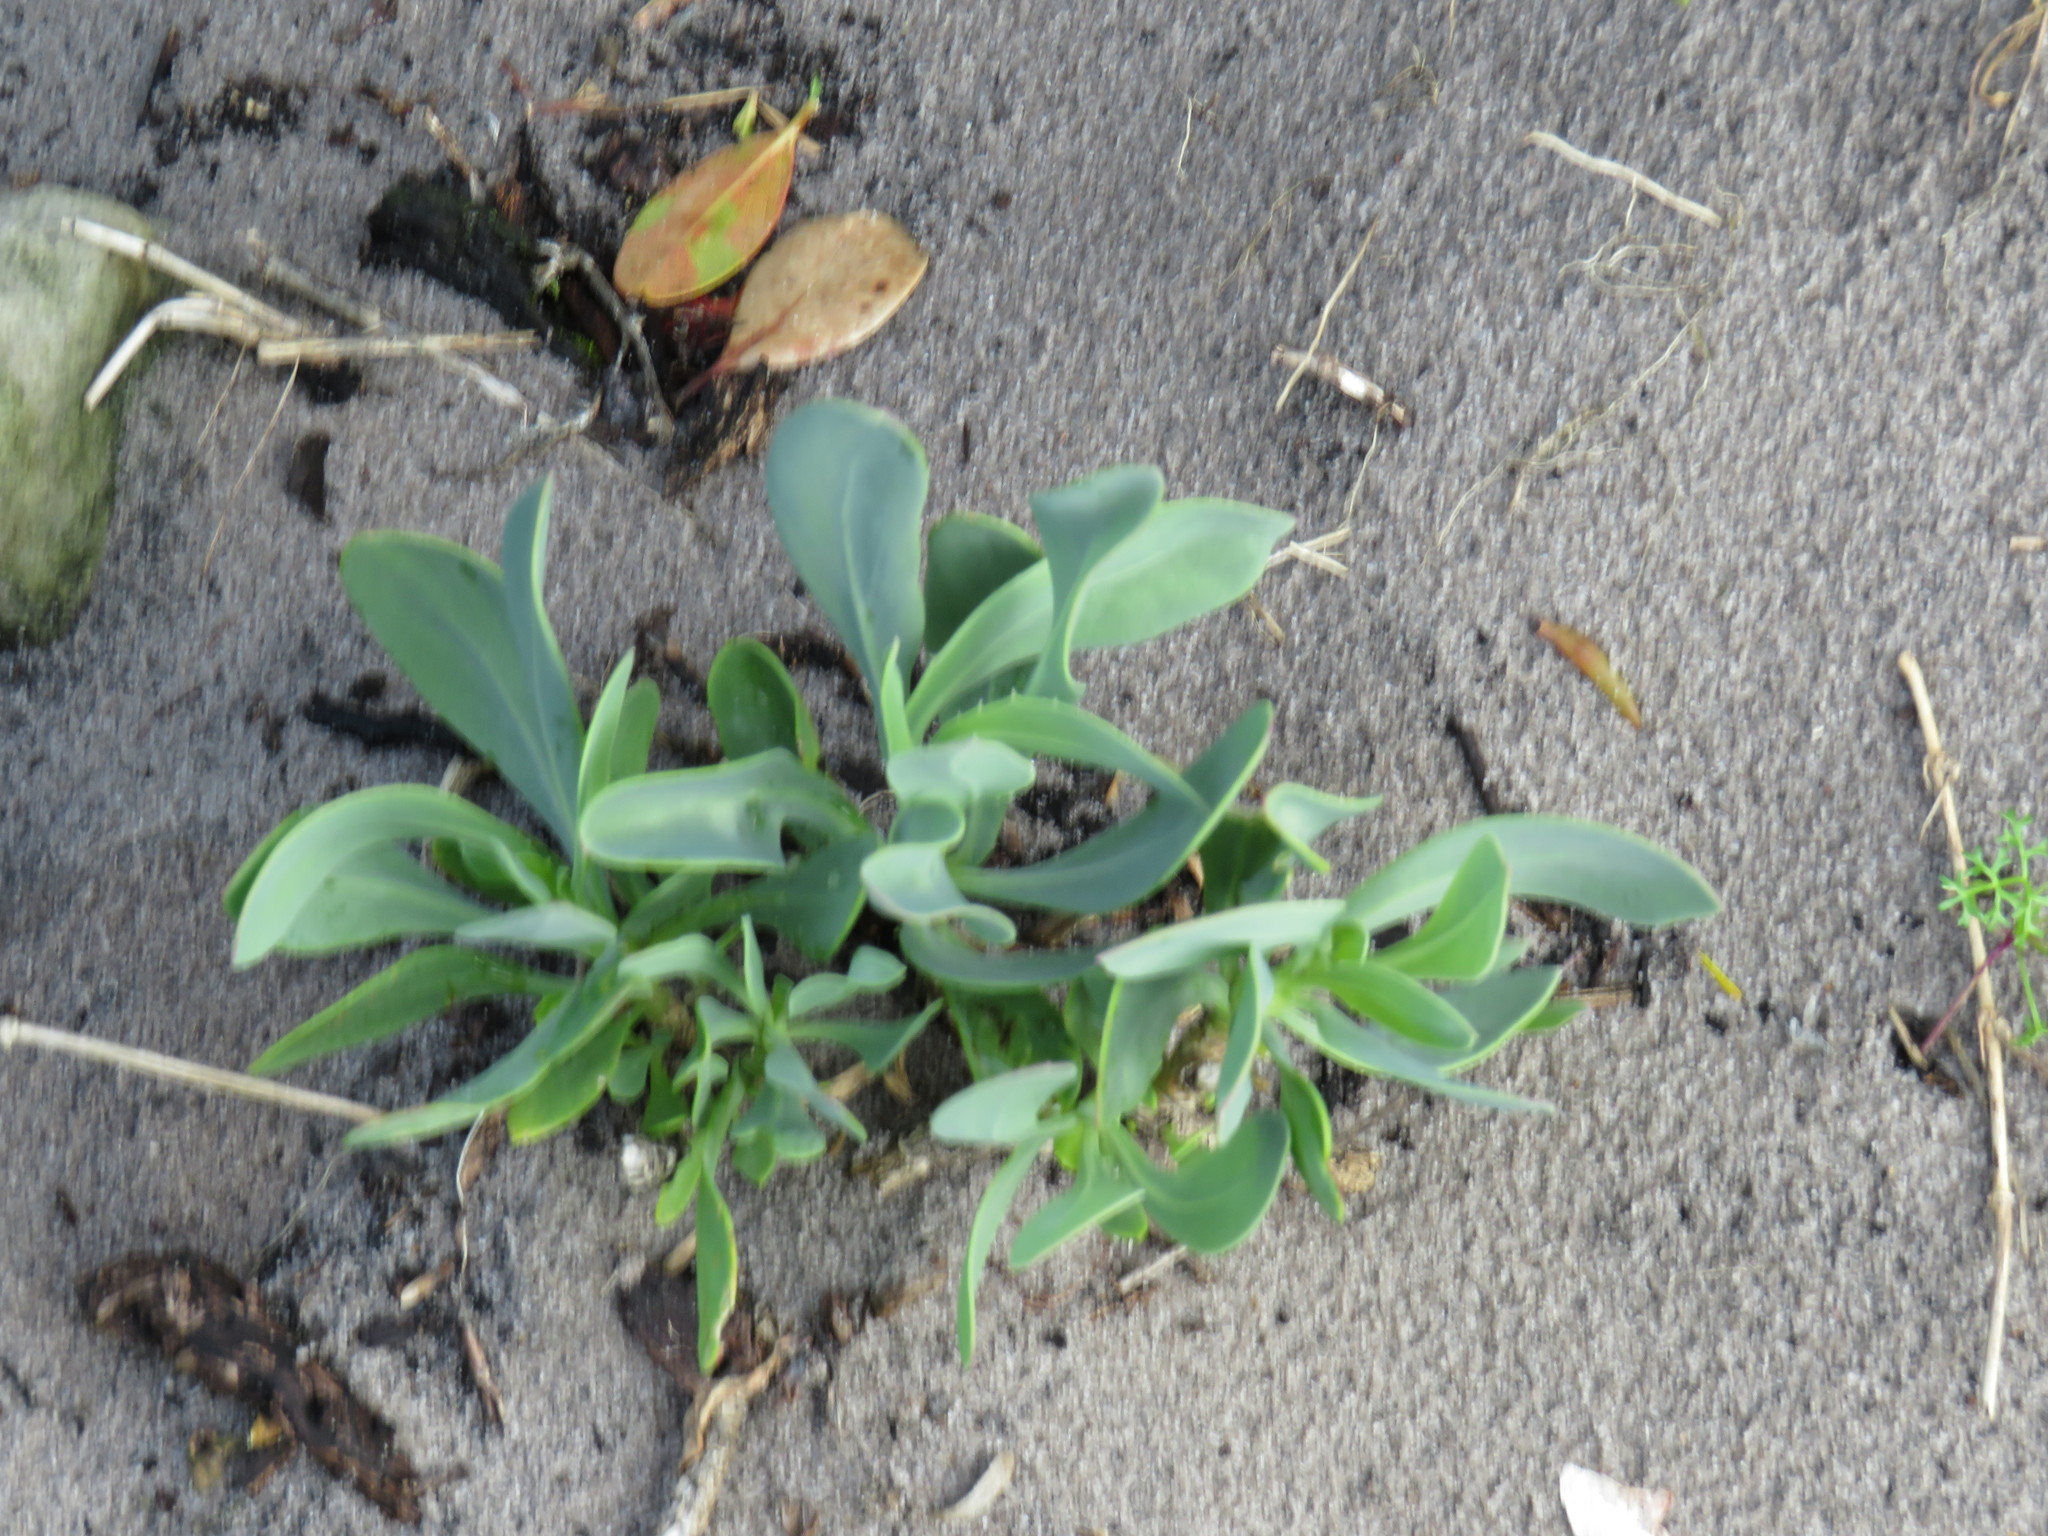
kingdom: Plantae
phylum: Tracheophyta
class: Magnoliopsida
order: Asterales
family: Asteraceae
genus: Othonna
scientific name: Othonna coronopifolia
